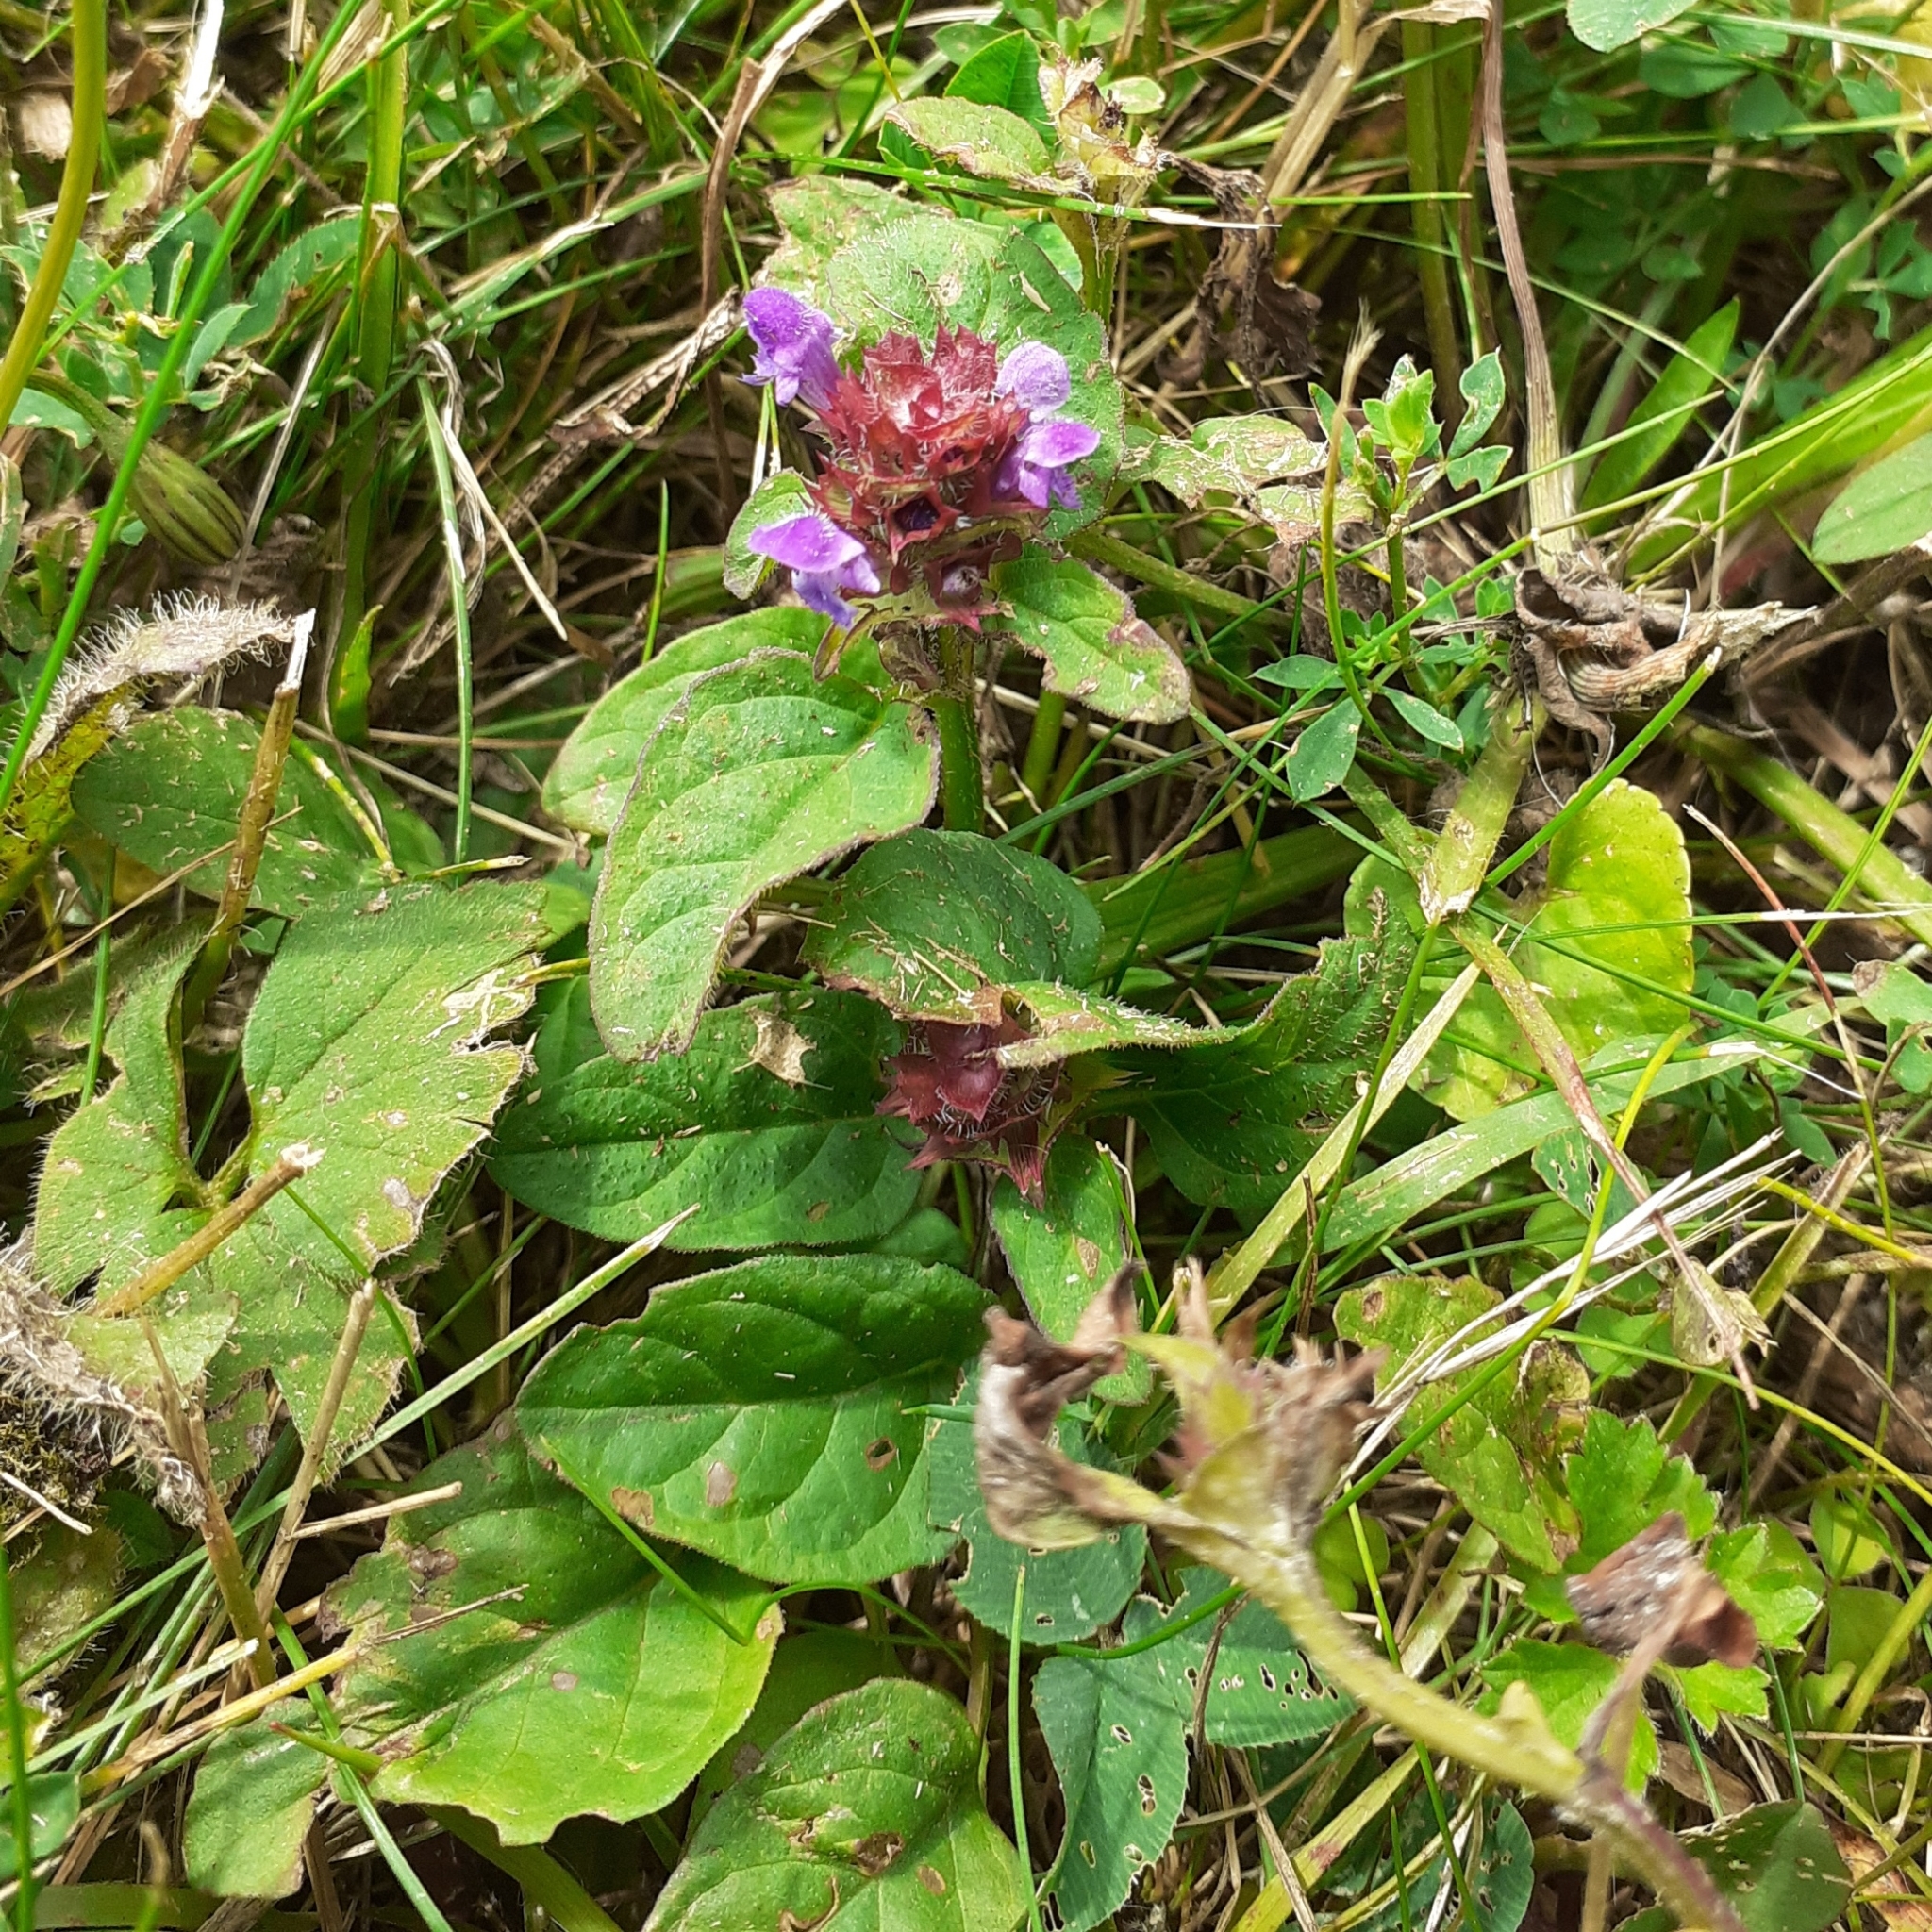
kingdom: Plantae
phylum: Tracheophyta
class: Magnoliopsida
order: Lamiales
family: Lamiaceae
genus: Prunella
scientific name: Prunella vulgaris
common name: Heal-all
